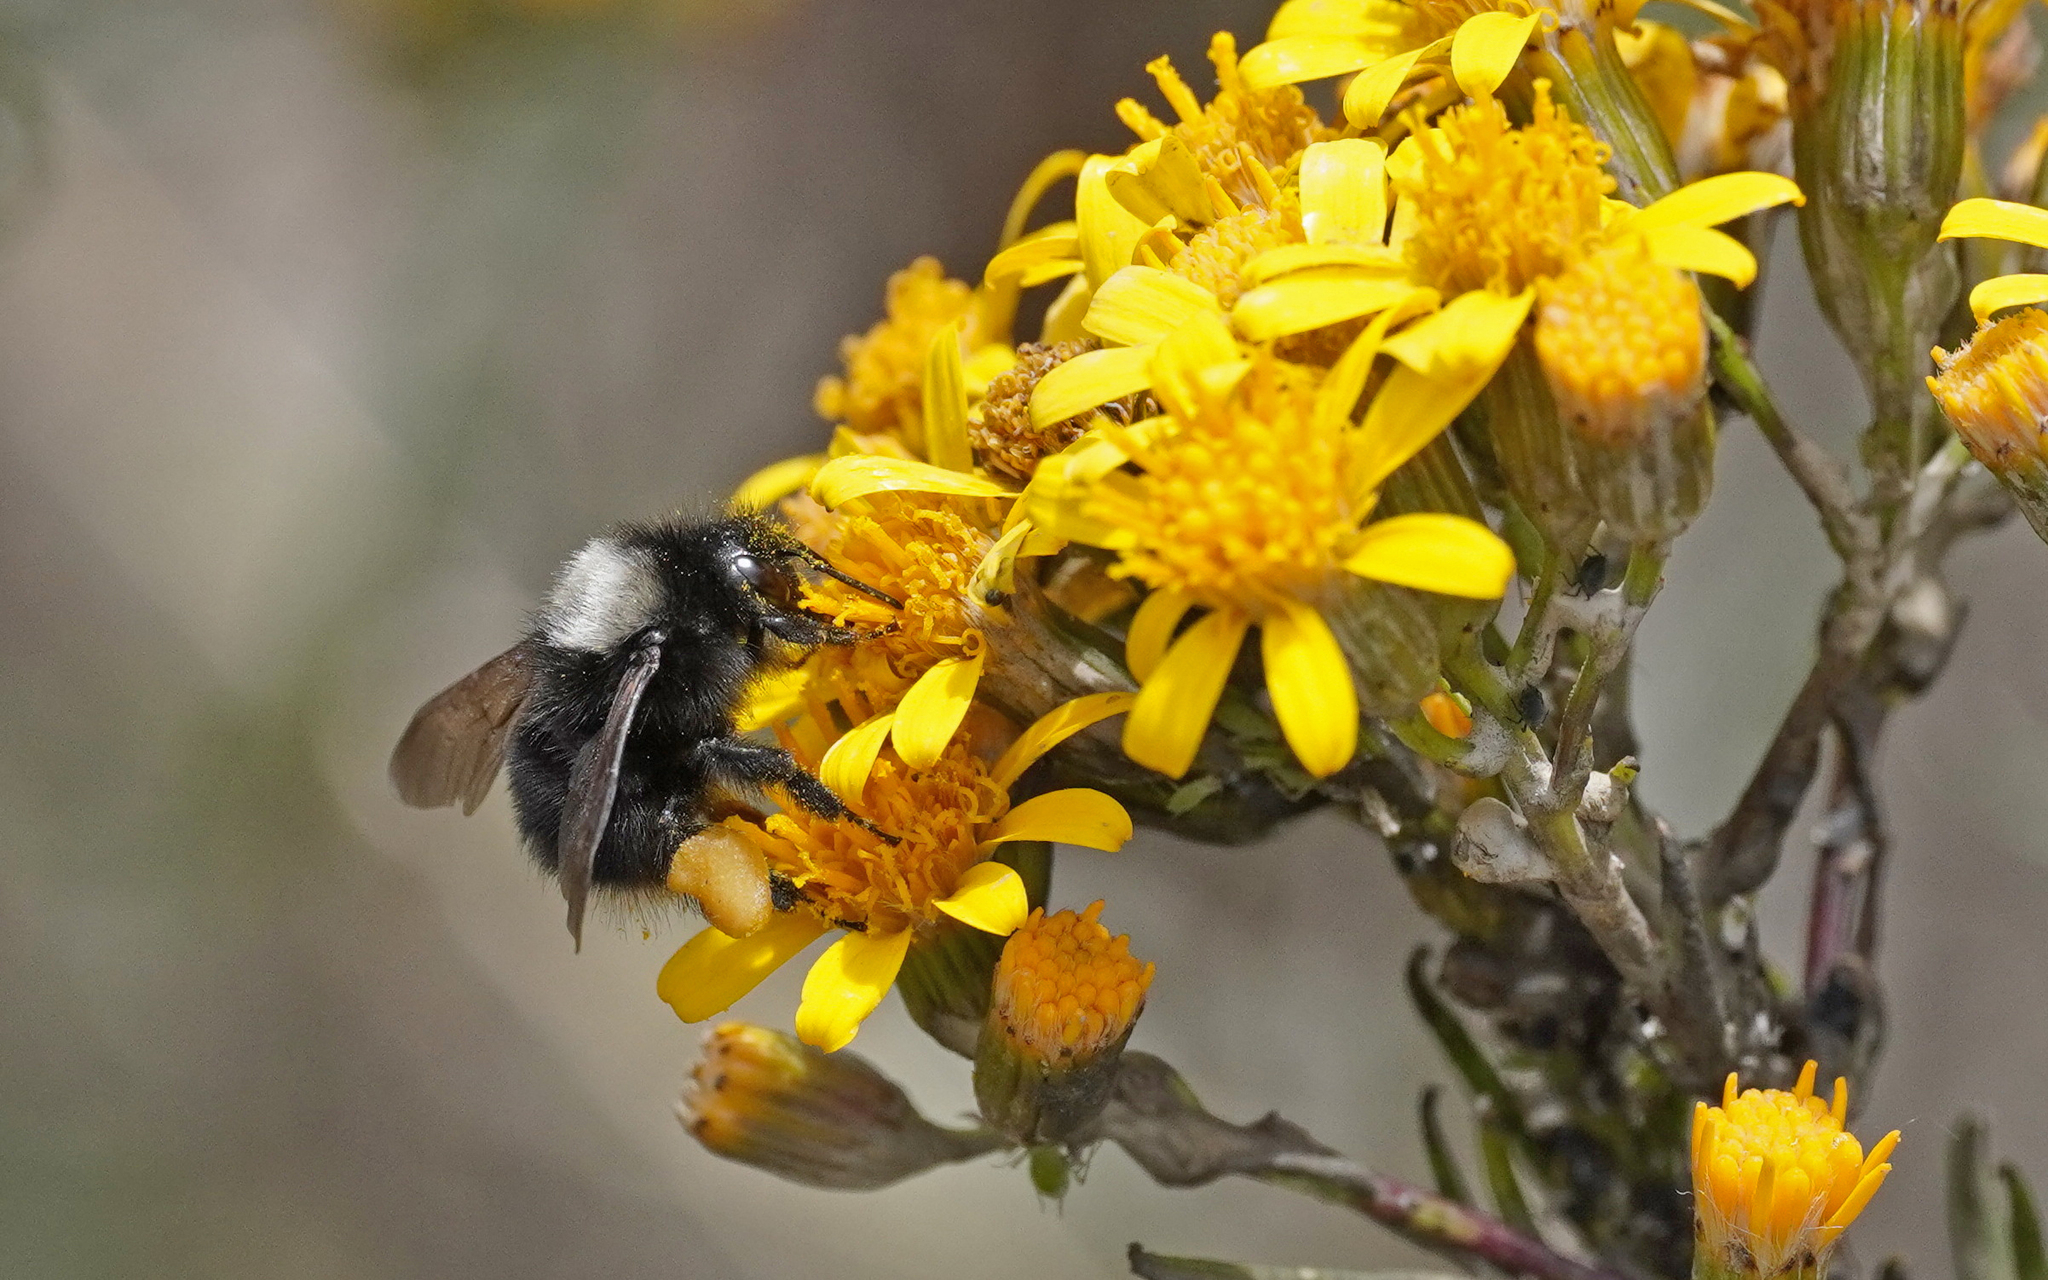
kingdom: Animalia
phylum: Arthropoda
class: Insecta
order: Hymenoptera
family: Apidae
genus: Bombus
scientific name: Bombus funebris
